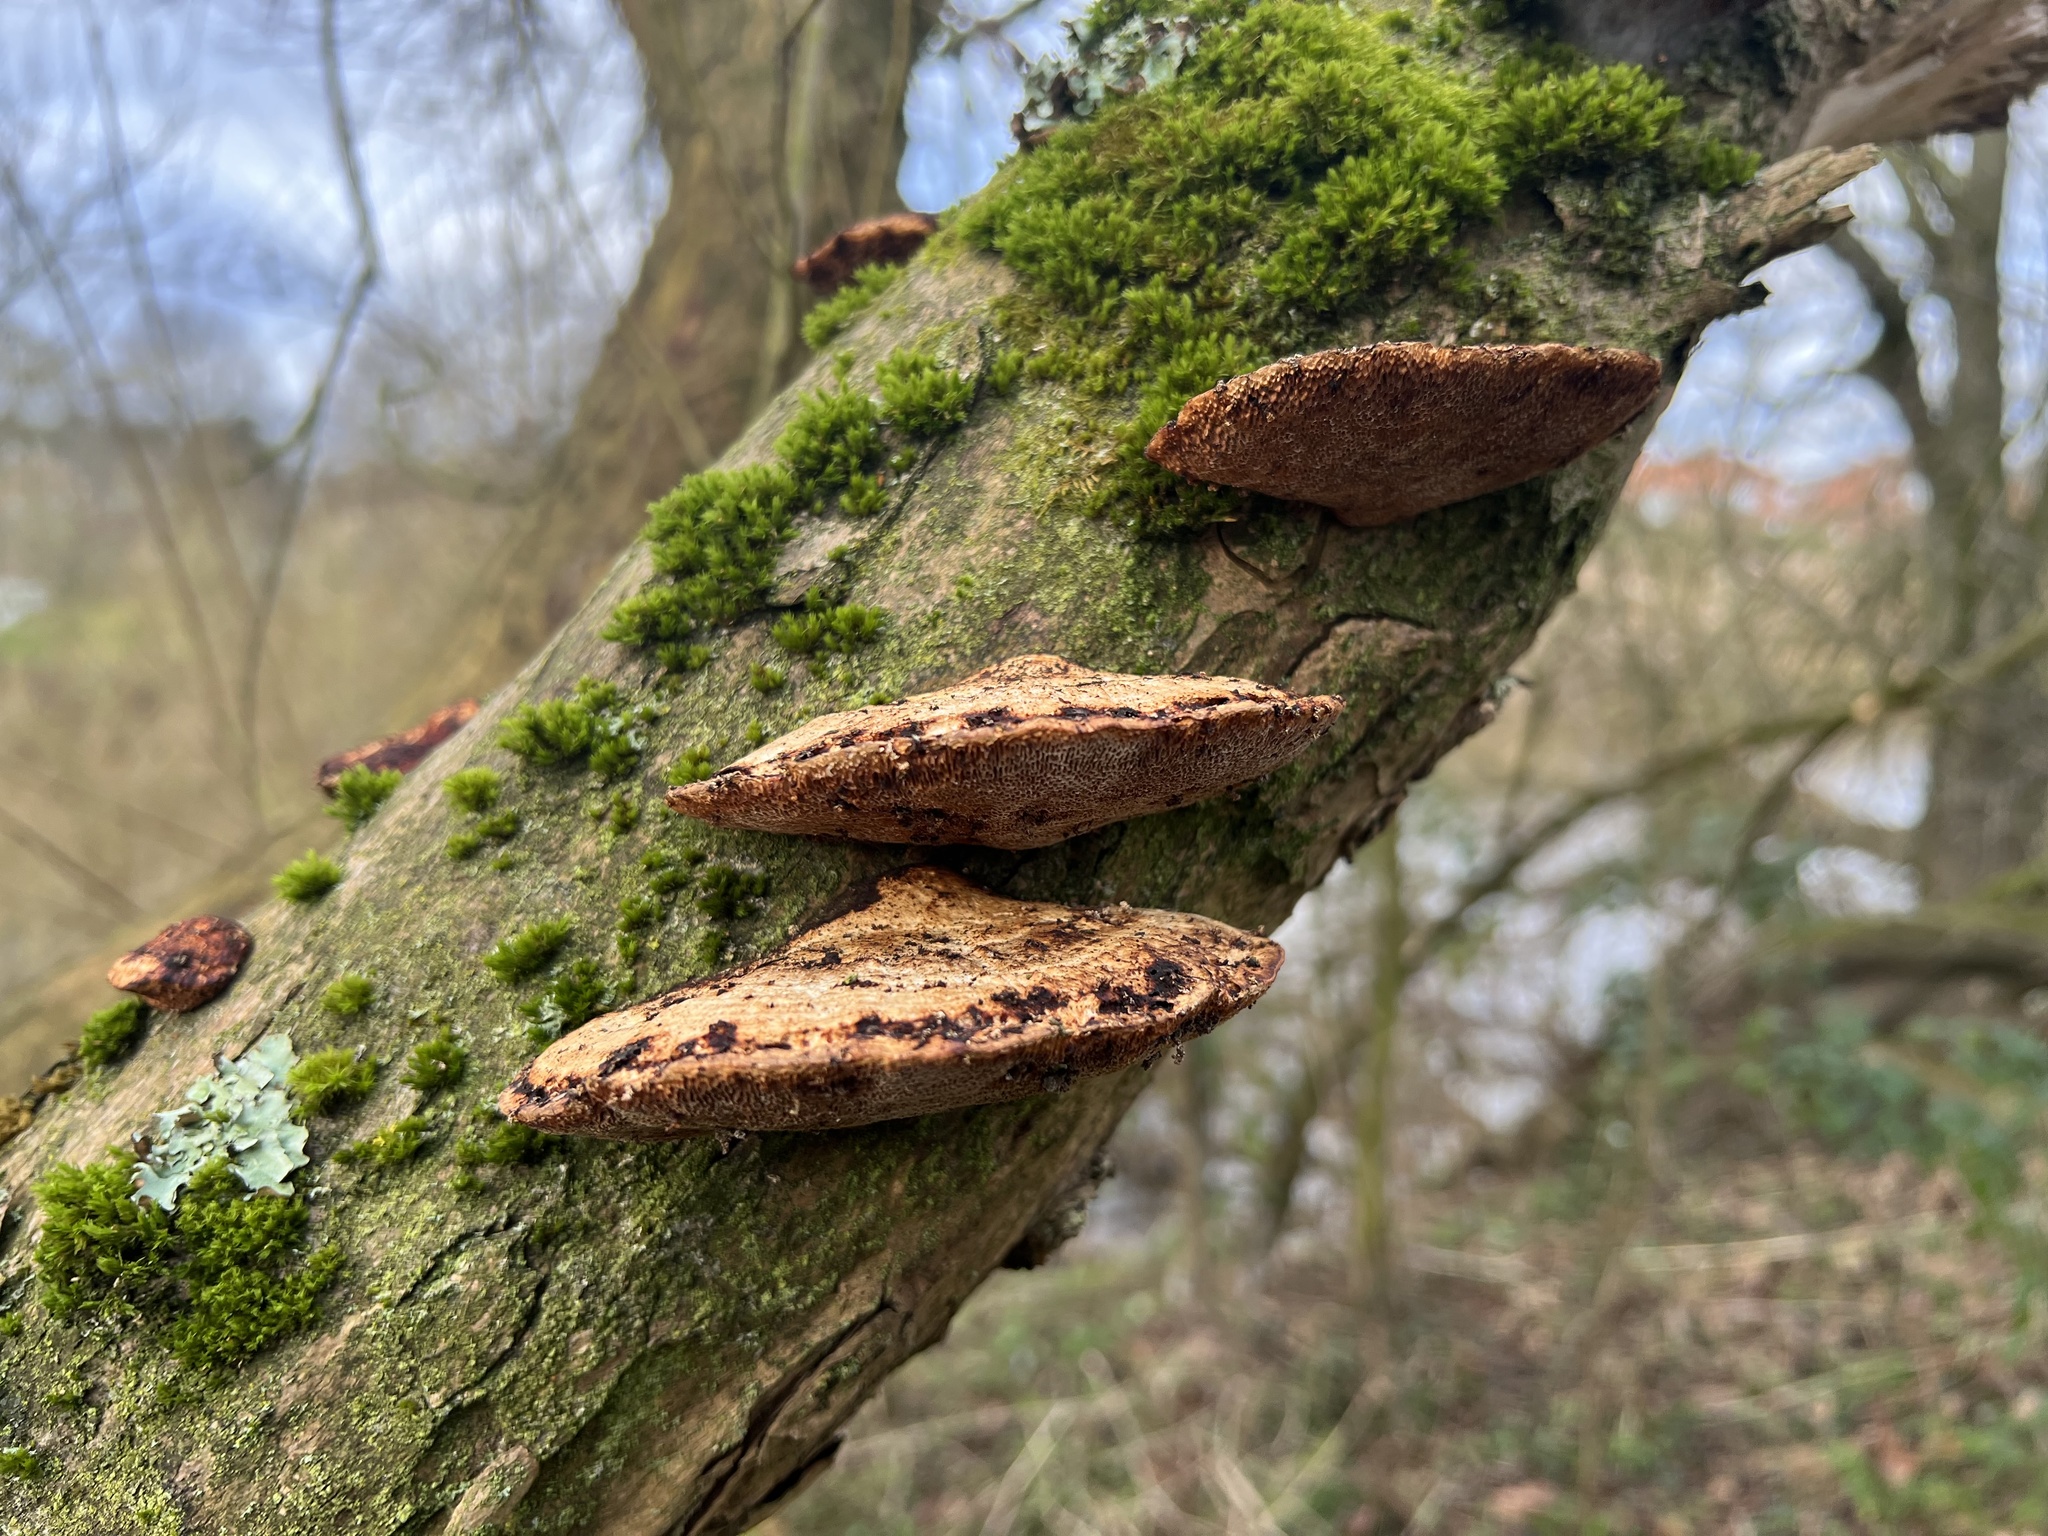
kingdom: Fungi
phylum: Basidiomycota
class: Agaricomycetes
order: Polyporales
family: Polyporaceae
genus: Daedaleopsis
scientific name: Daedaleopsis confragosa
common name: Blushing bracket
